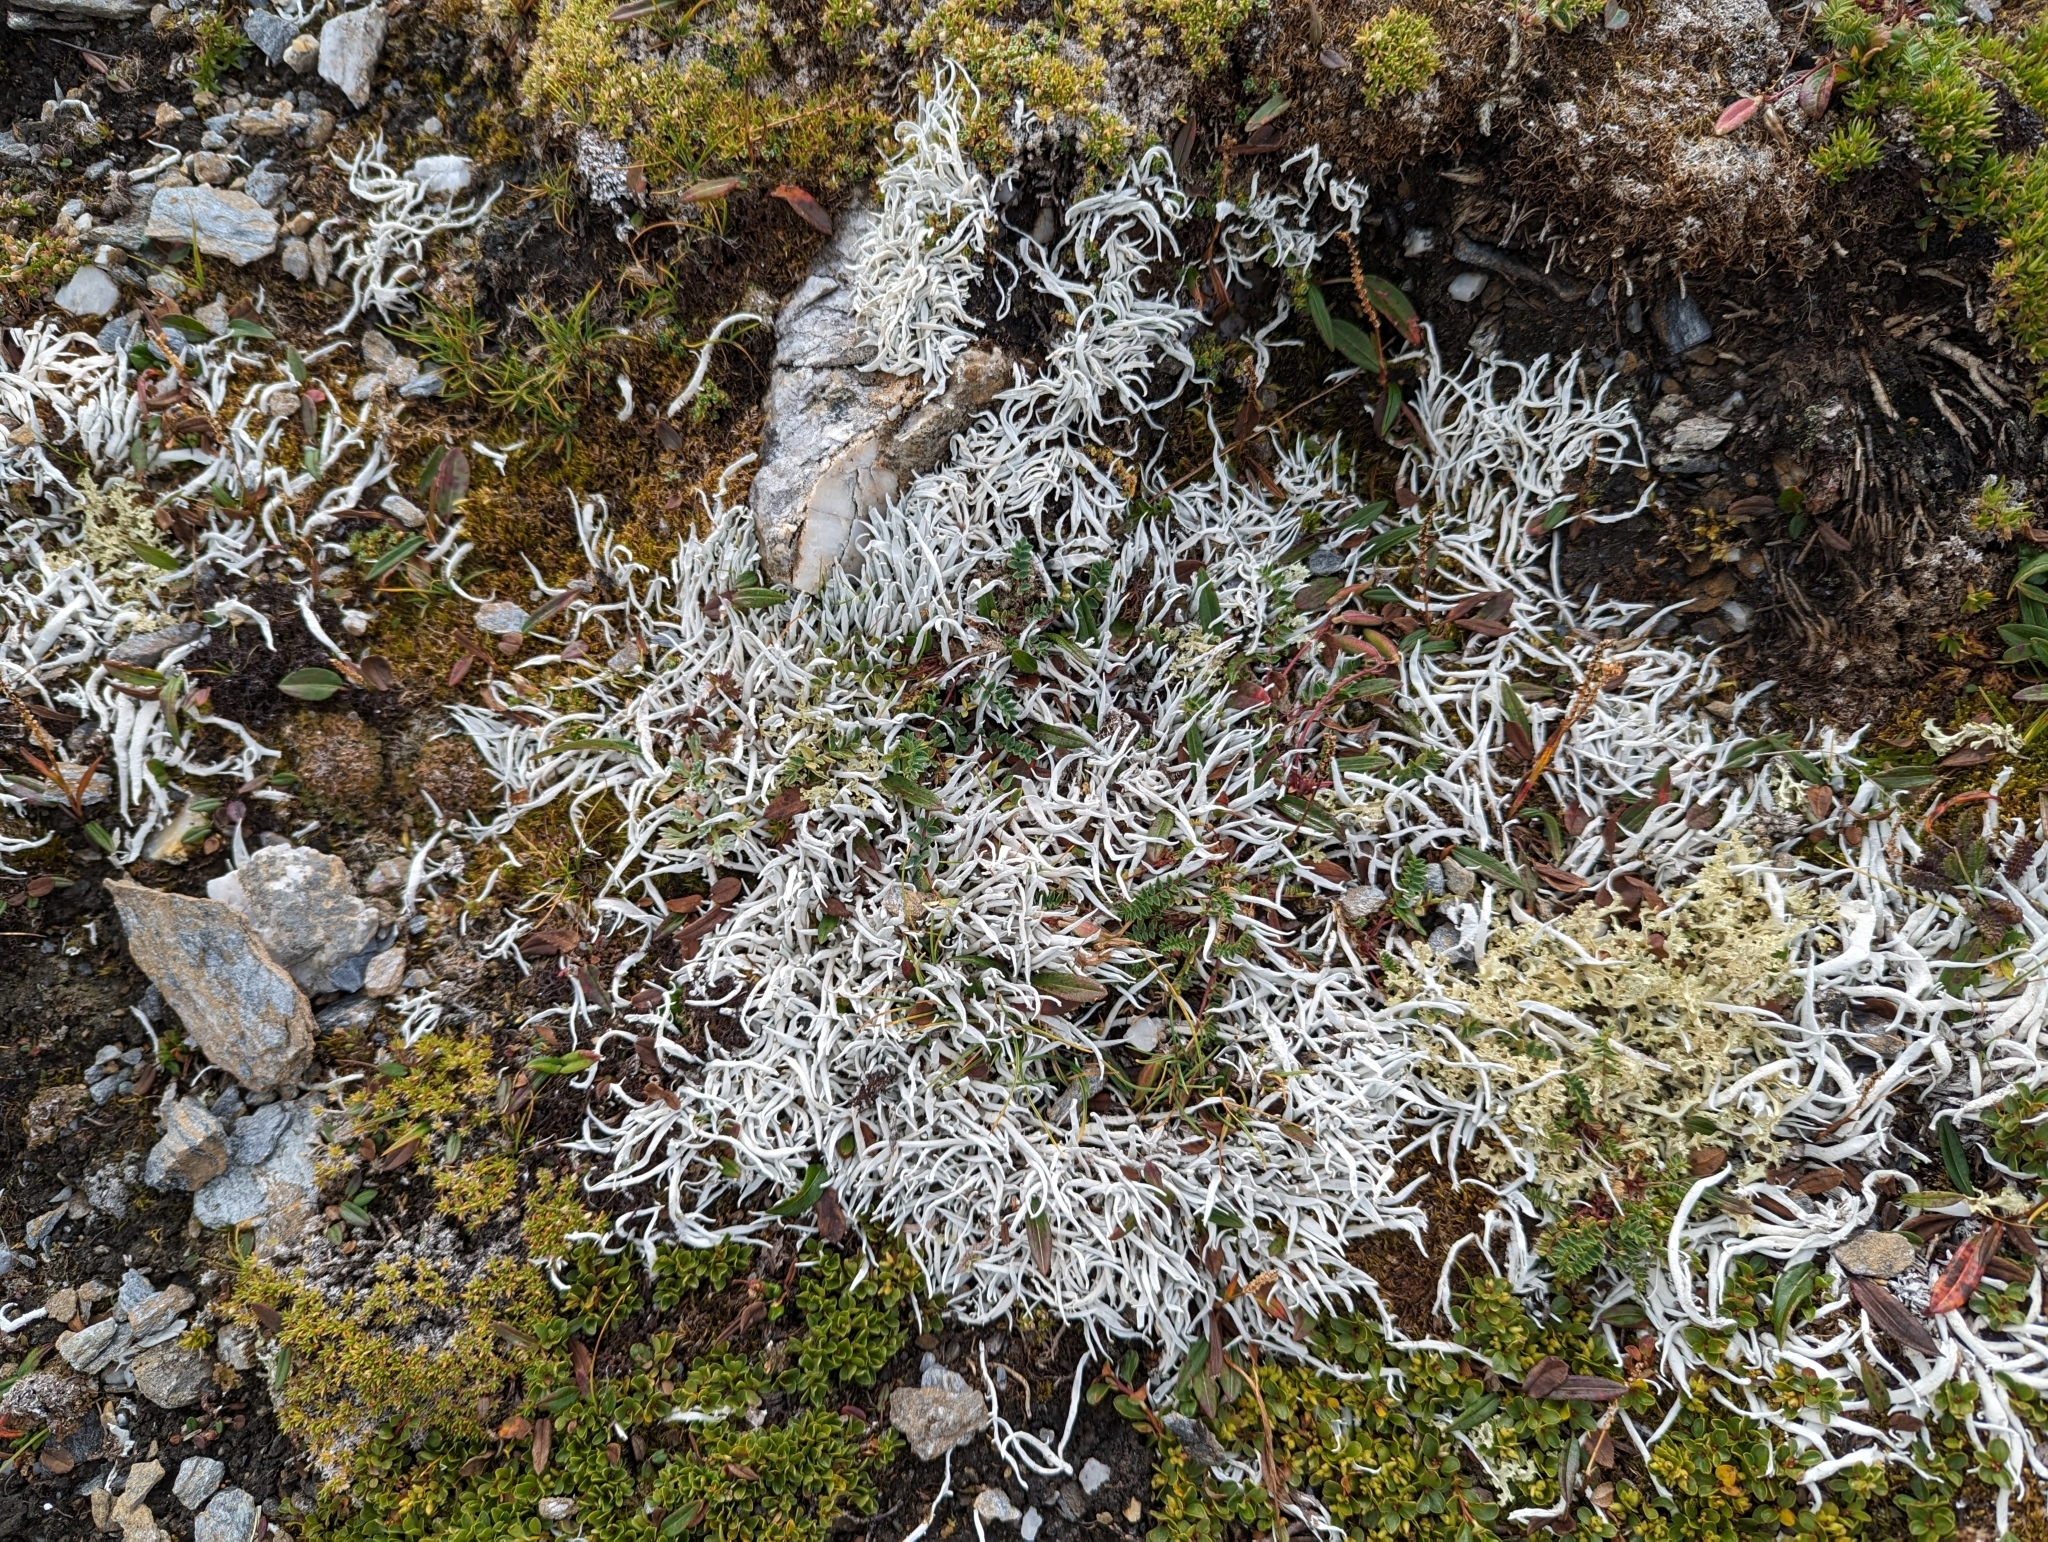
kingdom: Fungi
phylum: Ascomycota
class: Lecanoromycetes
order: Pertusariales
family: Icmadophilaceae
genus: Thamnolia
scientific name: Thamnolia vermicularis
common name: Whiteworm lichen
